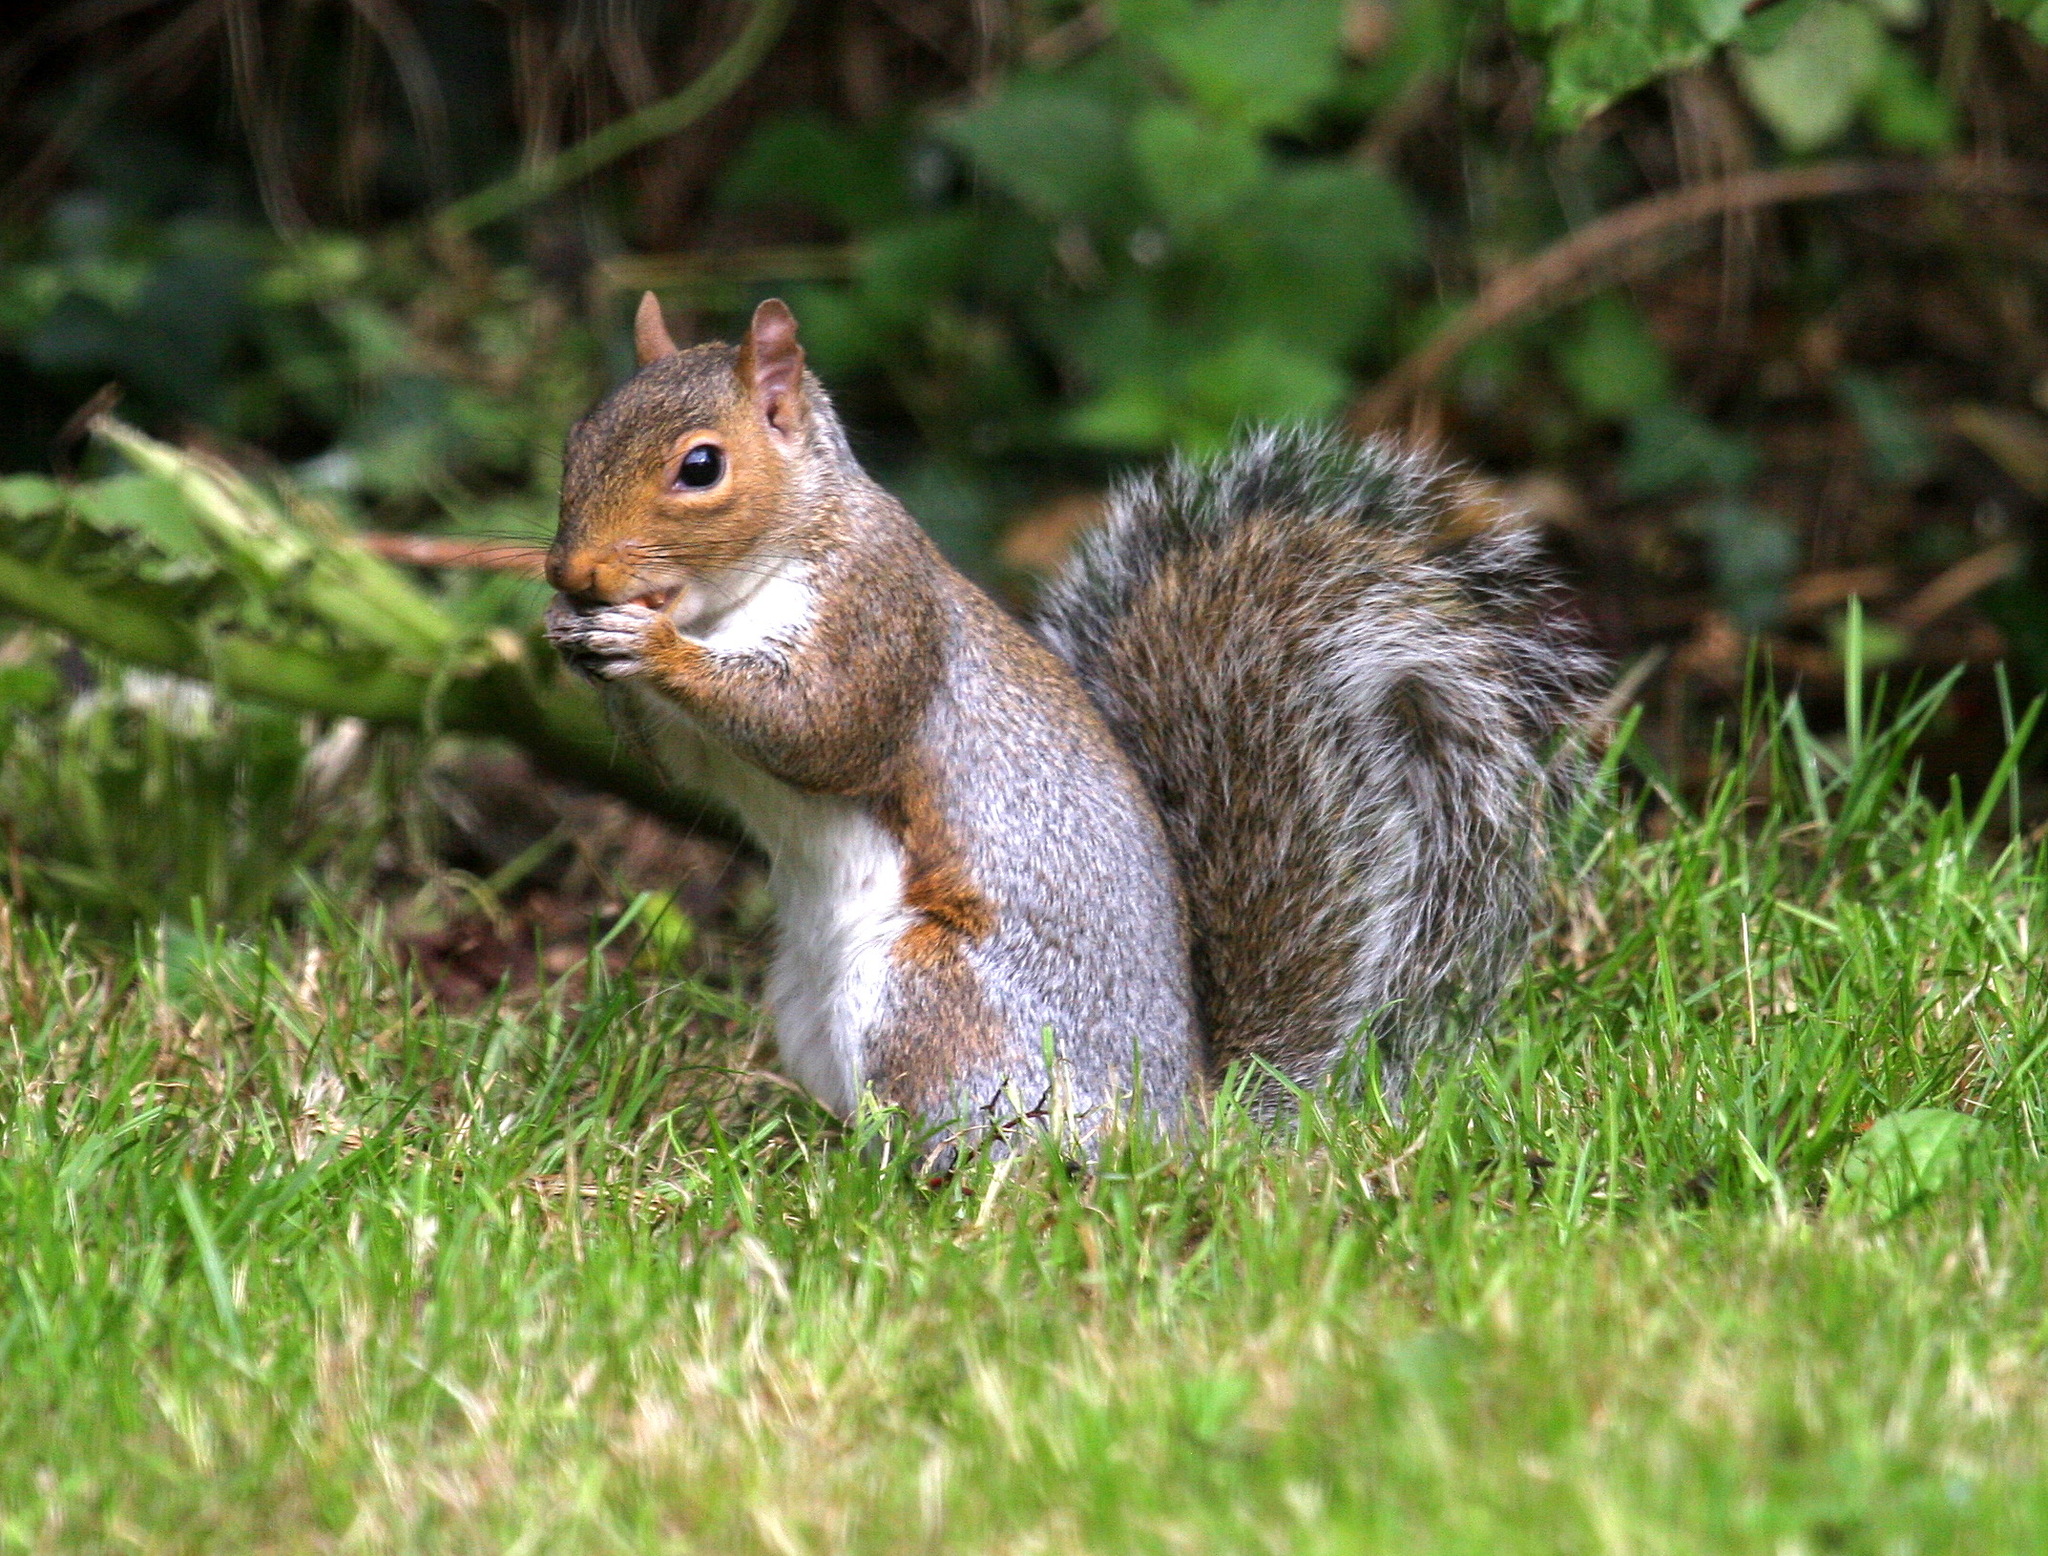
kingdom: Animalia
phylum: Chordata
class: Mammalia
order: Rodentia
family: Sciuridae
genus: Sciurus
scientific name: Sciurus carolinensis
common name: Eastern gray squirrel
